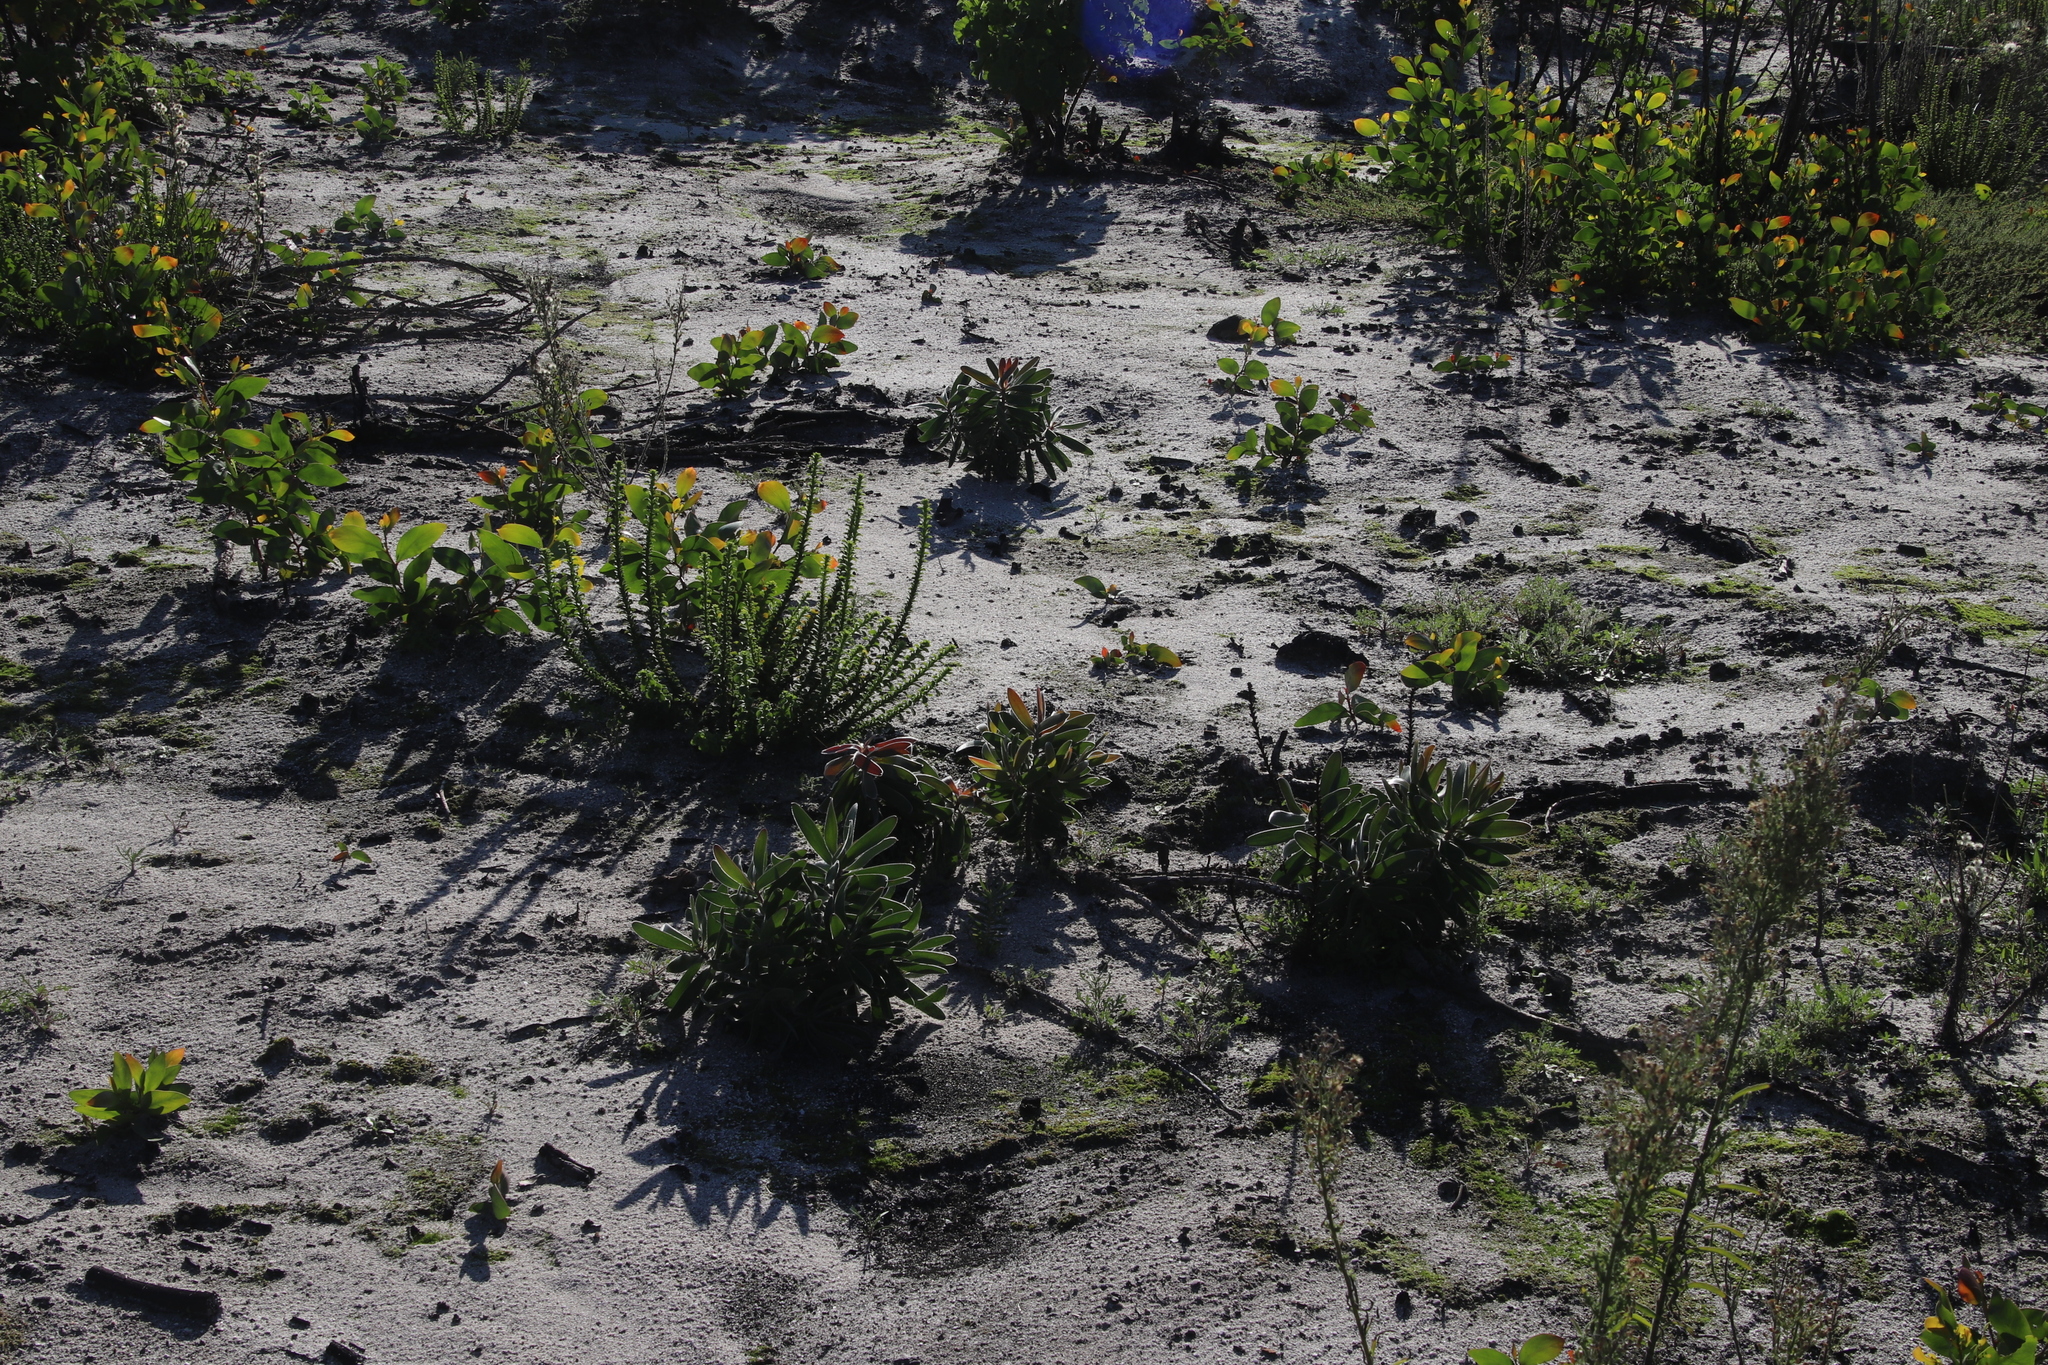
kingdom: Plantae
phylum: Tracheophyta
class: Magnoliopsida
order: Proteales
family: Proteaceae
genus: Leucadendron
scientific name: Leucadendron laureolum
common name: Golden sunshinebush
